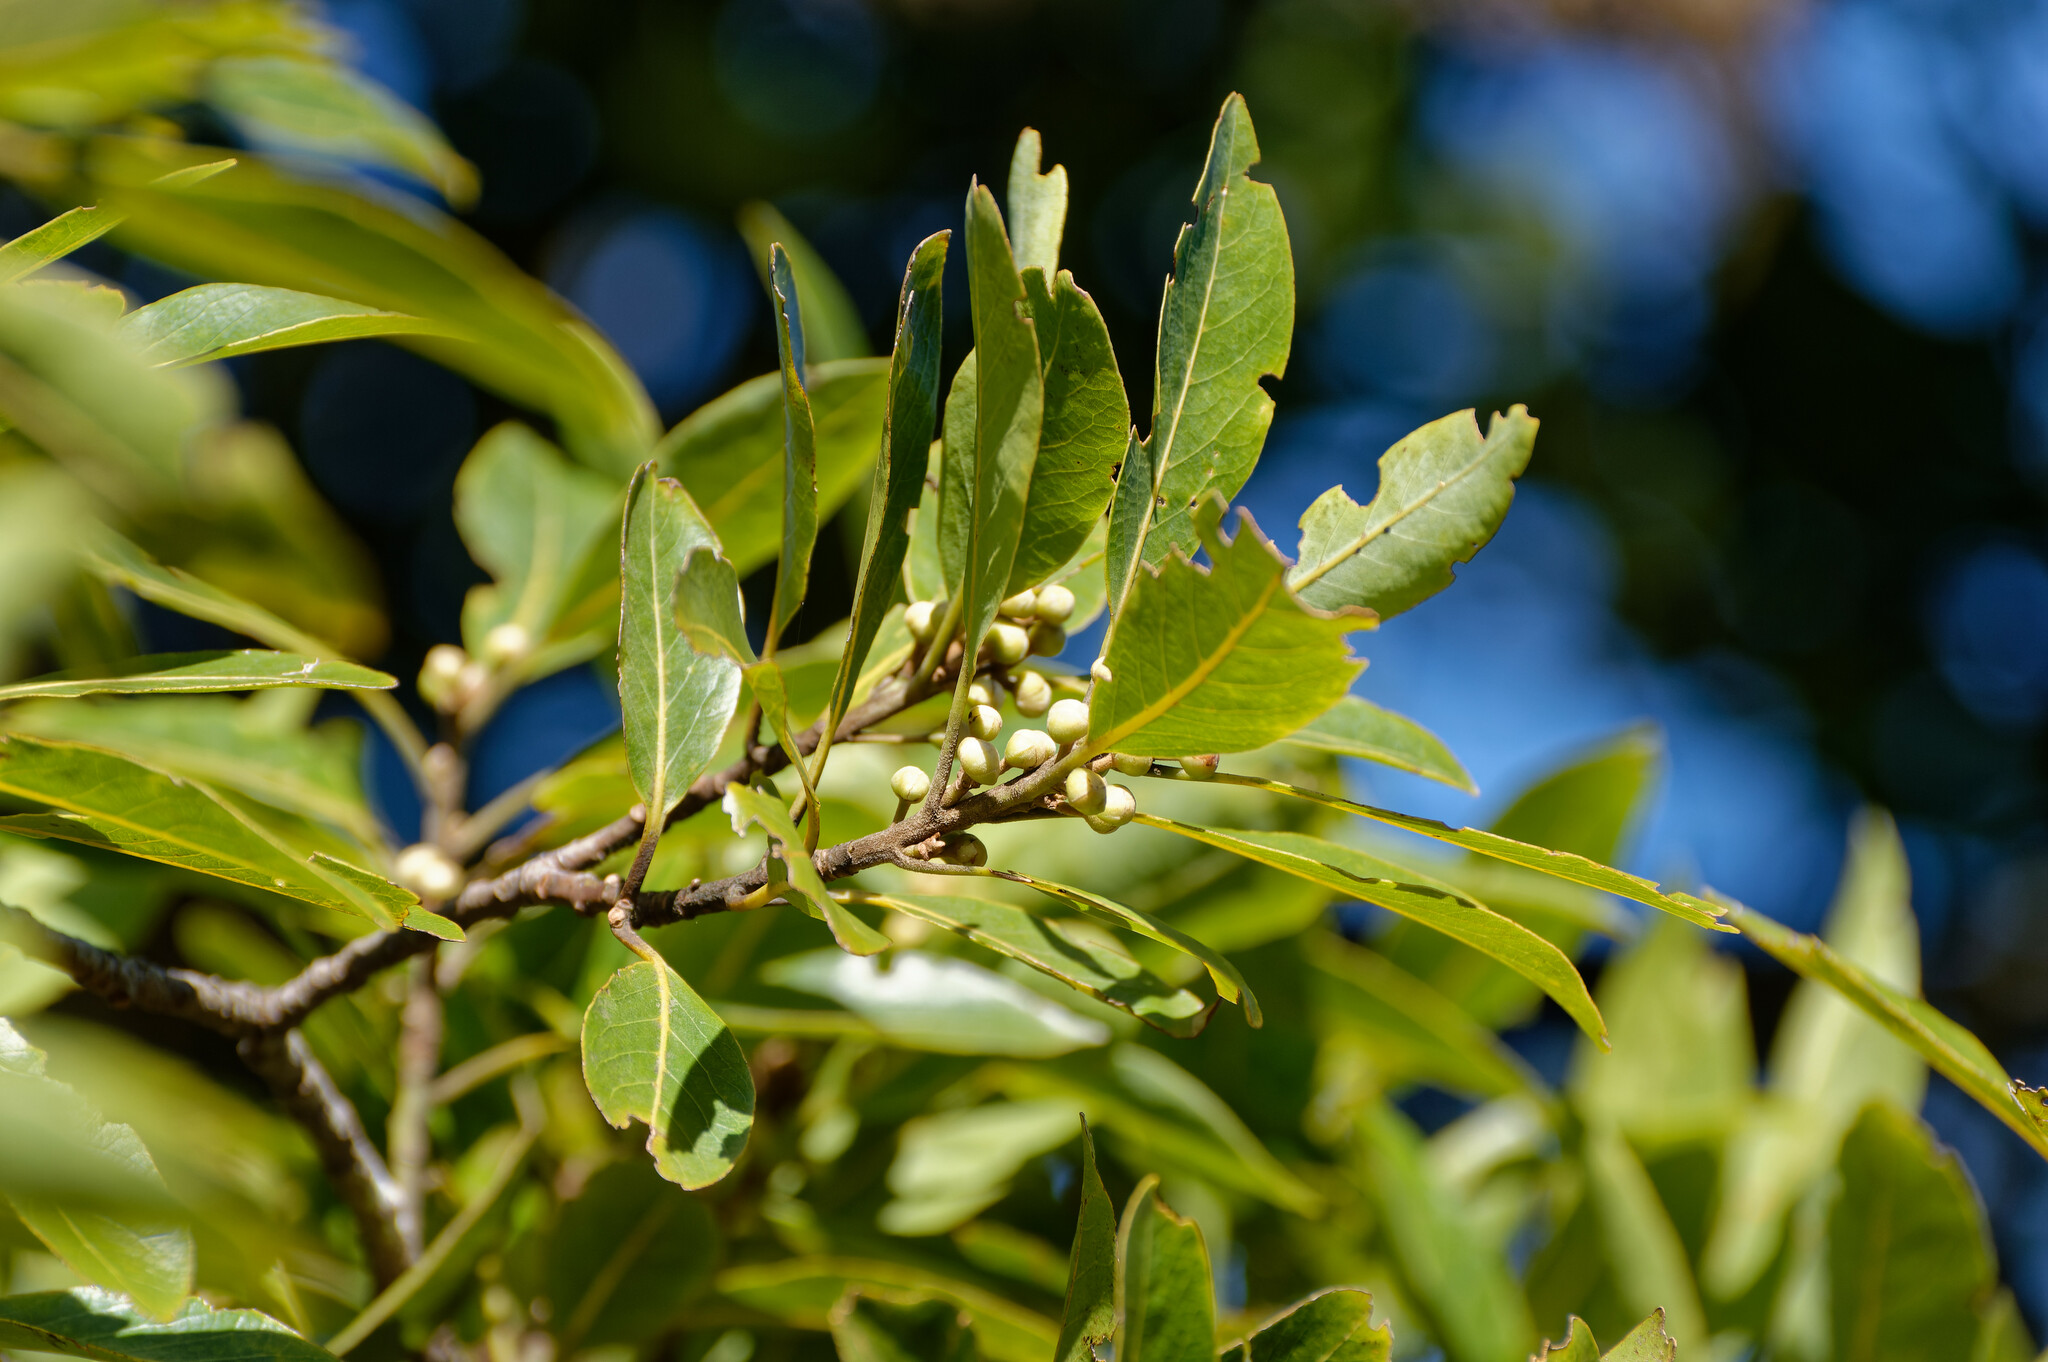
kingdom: Plantae
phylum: Tracheophyta
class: Magnoliopsida
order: Laurales
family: Lauraceae
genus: Laurus
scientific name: Laurus novocanariensis
